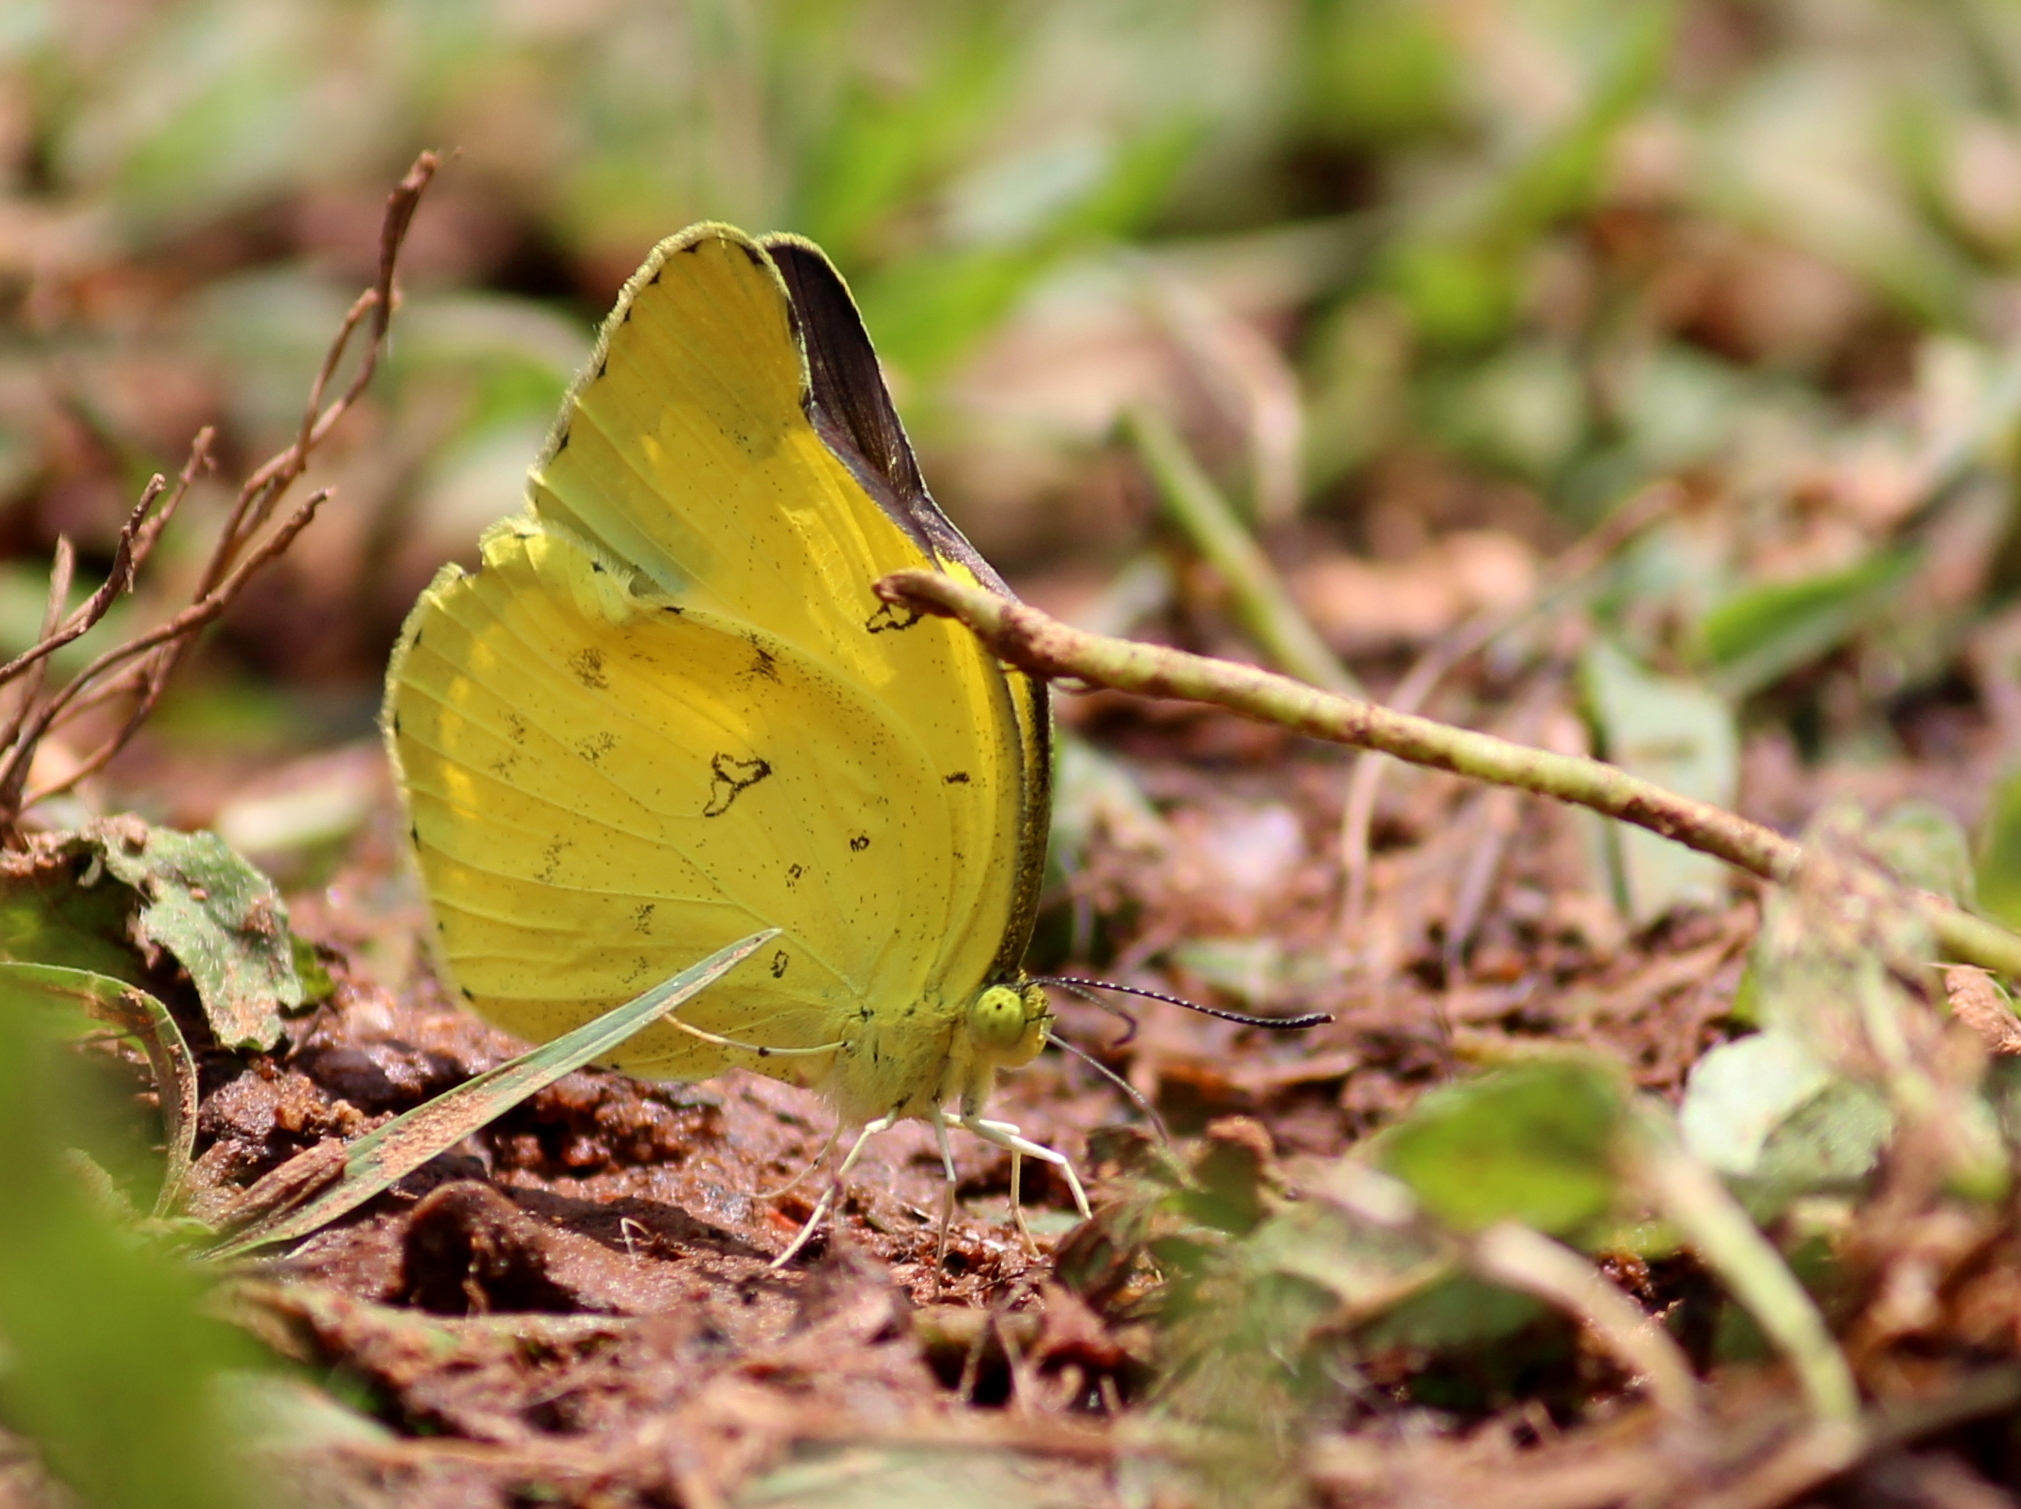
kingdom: Animalia
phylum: Arthropoda
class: Insecta
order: Lepidoptera
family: Pieridae
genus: Eurema
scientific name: Eurema hecabe
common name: Pale grass yellow
